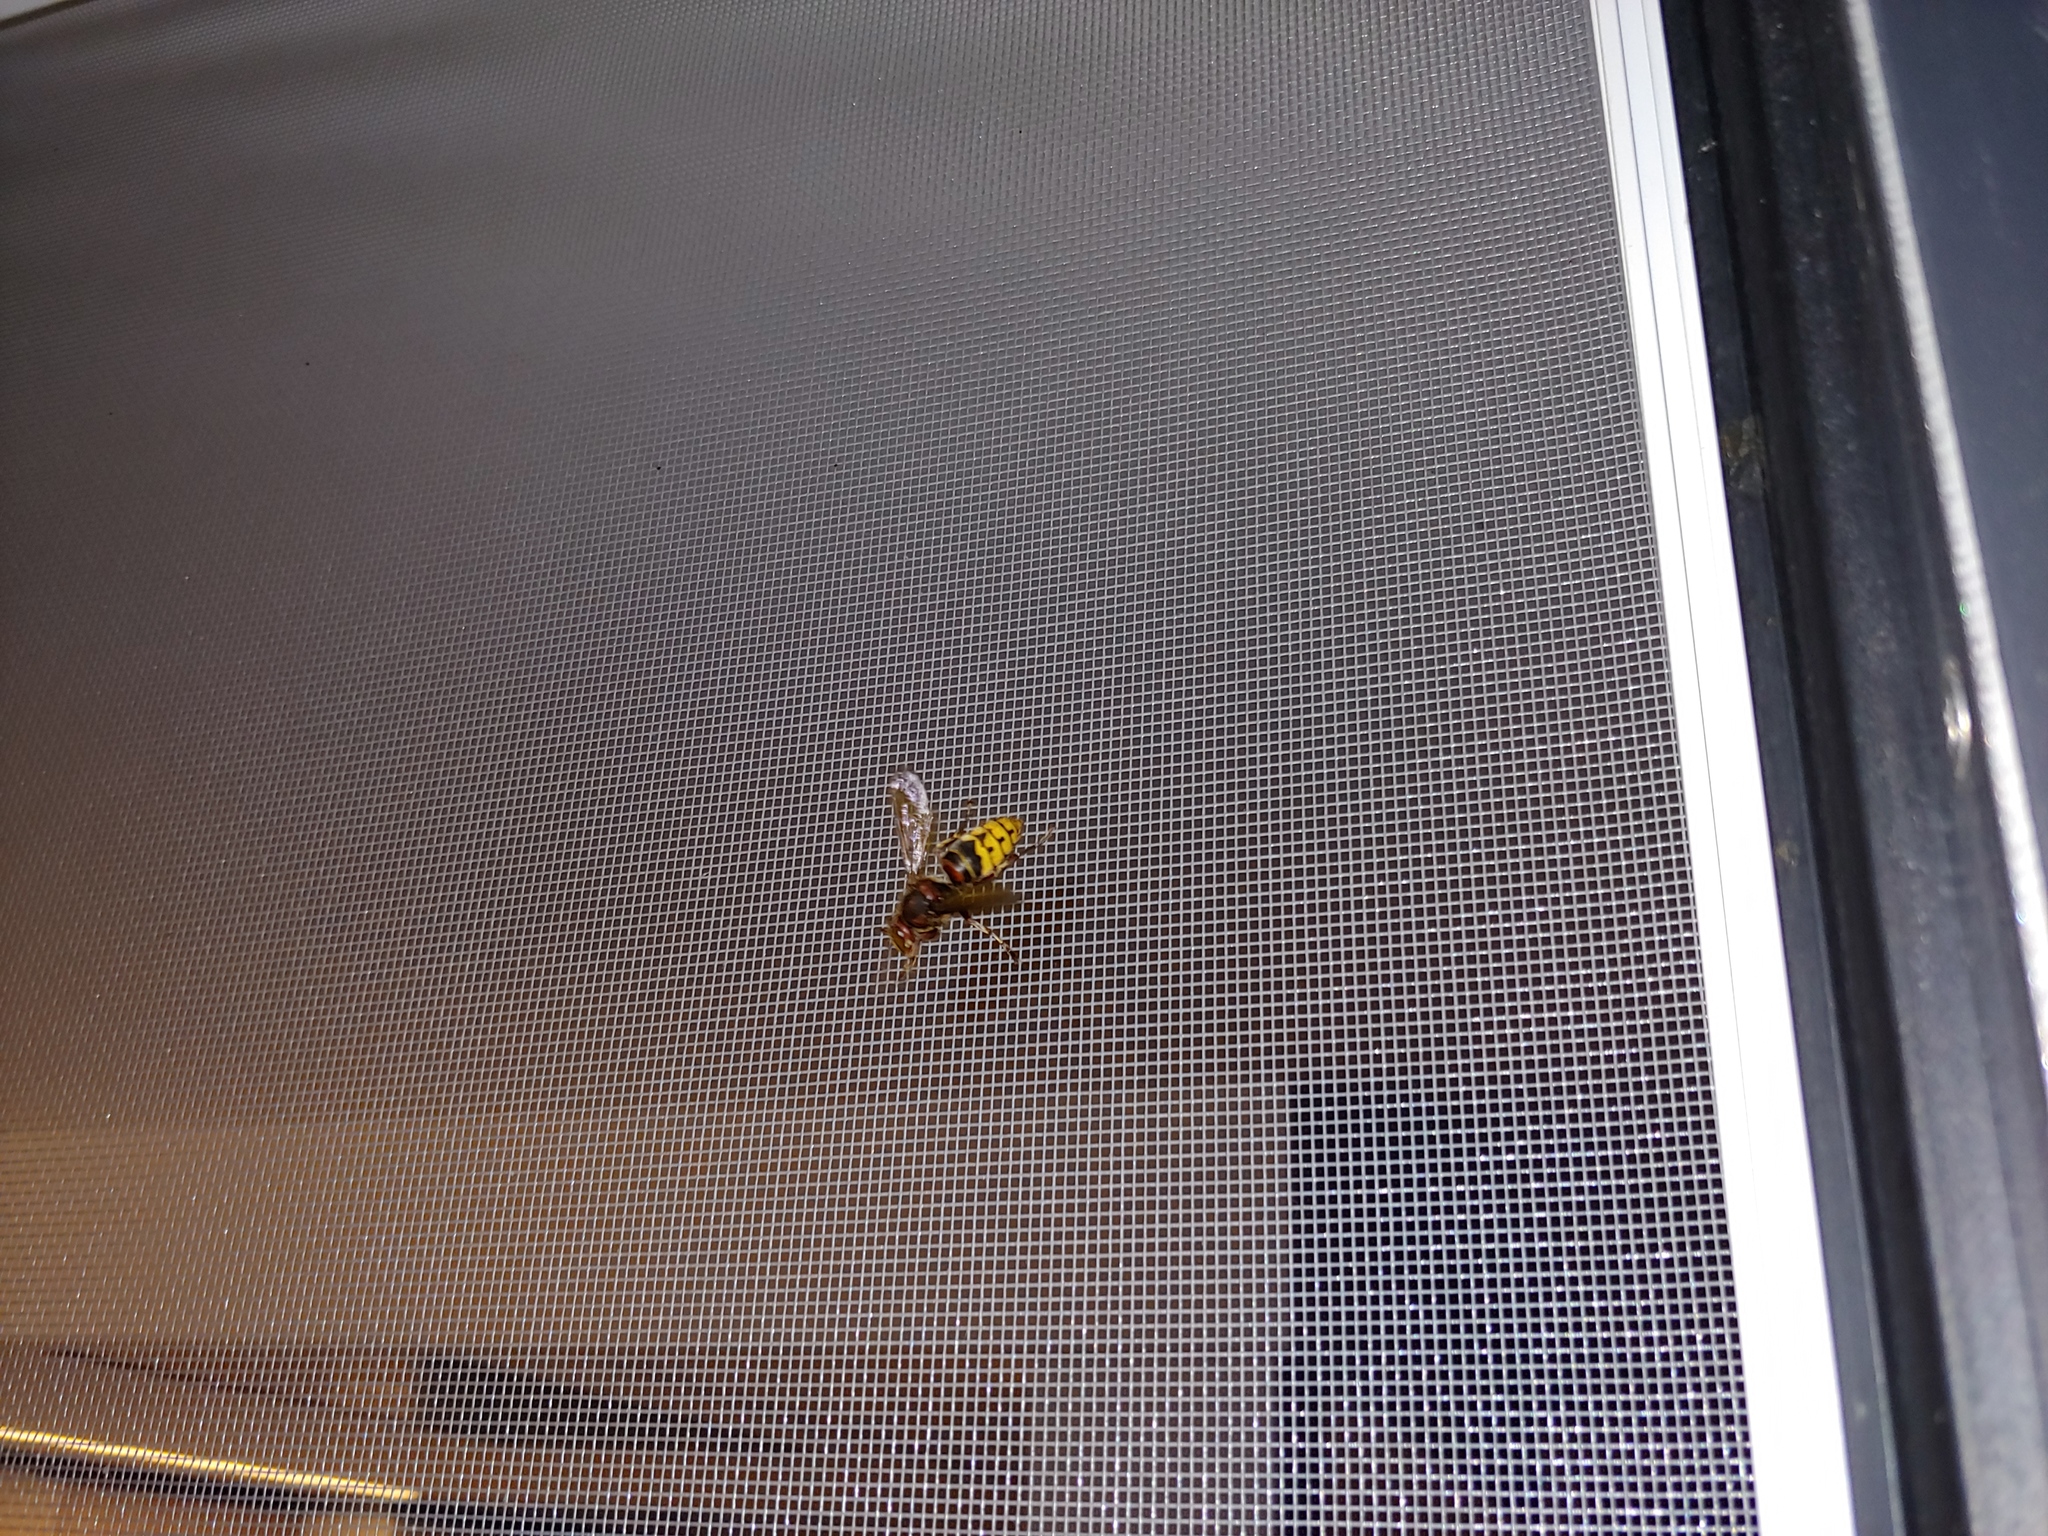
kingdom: Animalia
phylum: Arthropoda
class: Insecta
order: Hymenoptera
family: Vespidae
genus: Vespa
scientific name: Vespa crabro
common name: Hornet
